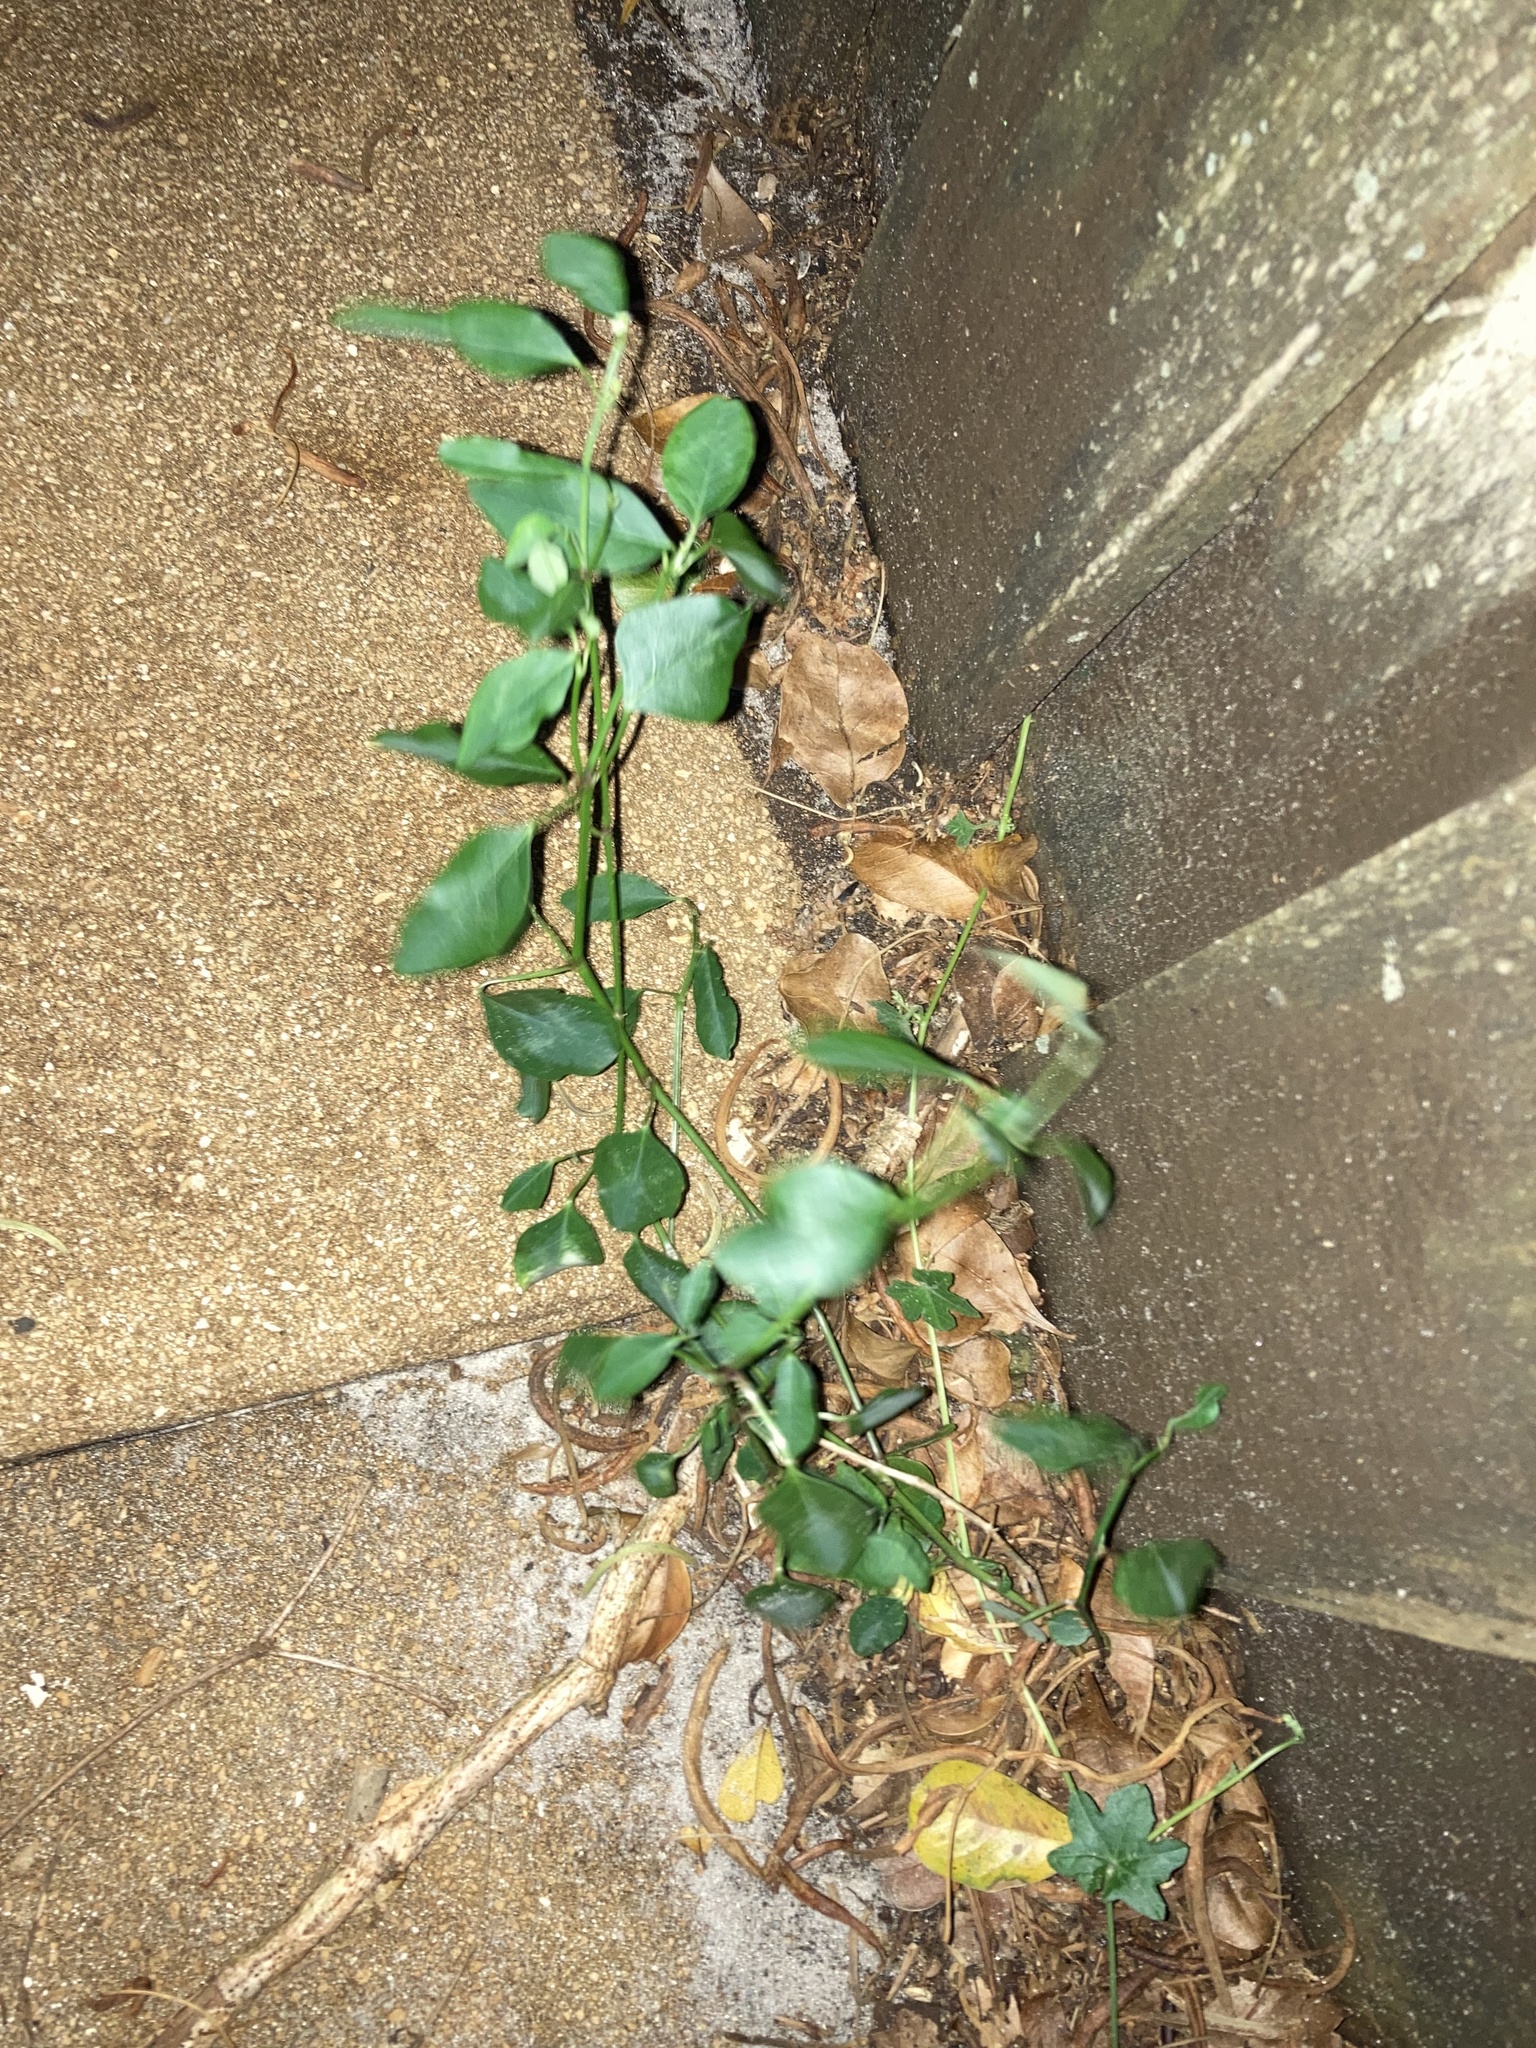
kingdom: Plantae
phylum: Tracheophyta
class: Magnoliopsida
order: Malpighiales
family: Euphorbiaceae
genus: Euphorbia
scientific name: Euphorbia graminea
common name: Grassleaf spurge
